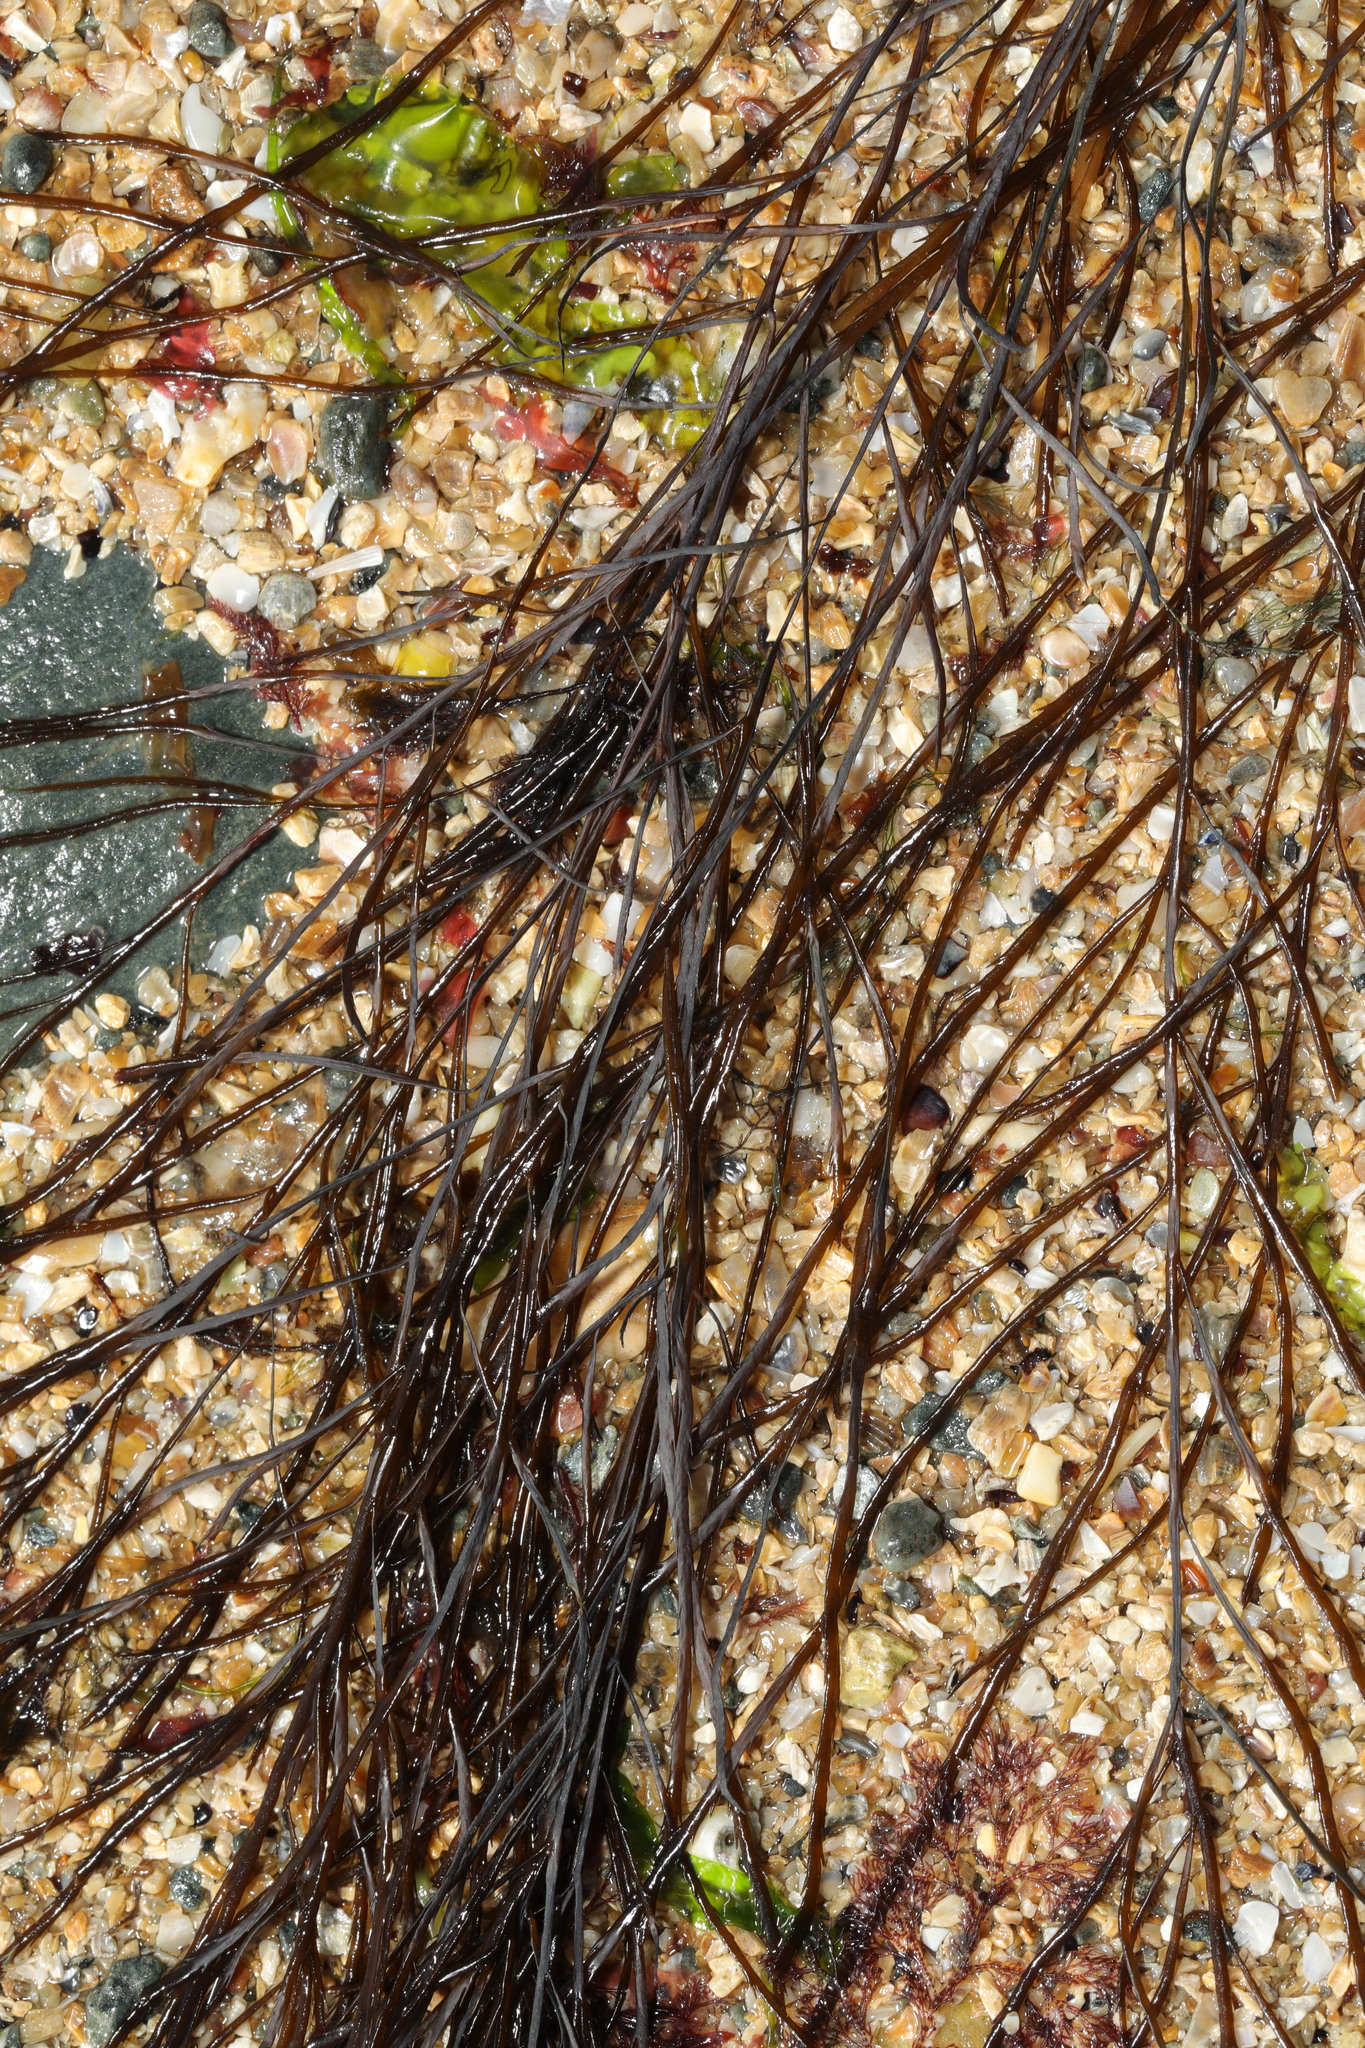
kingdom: Chromista
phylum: Ochrophyta
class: Phaeophyceae
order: Desmarestiales
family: Desmarestiaceae
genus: Desmarestia
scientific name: Desmarestia aculeata
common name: Witch's hair
